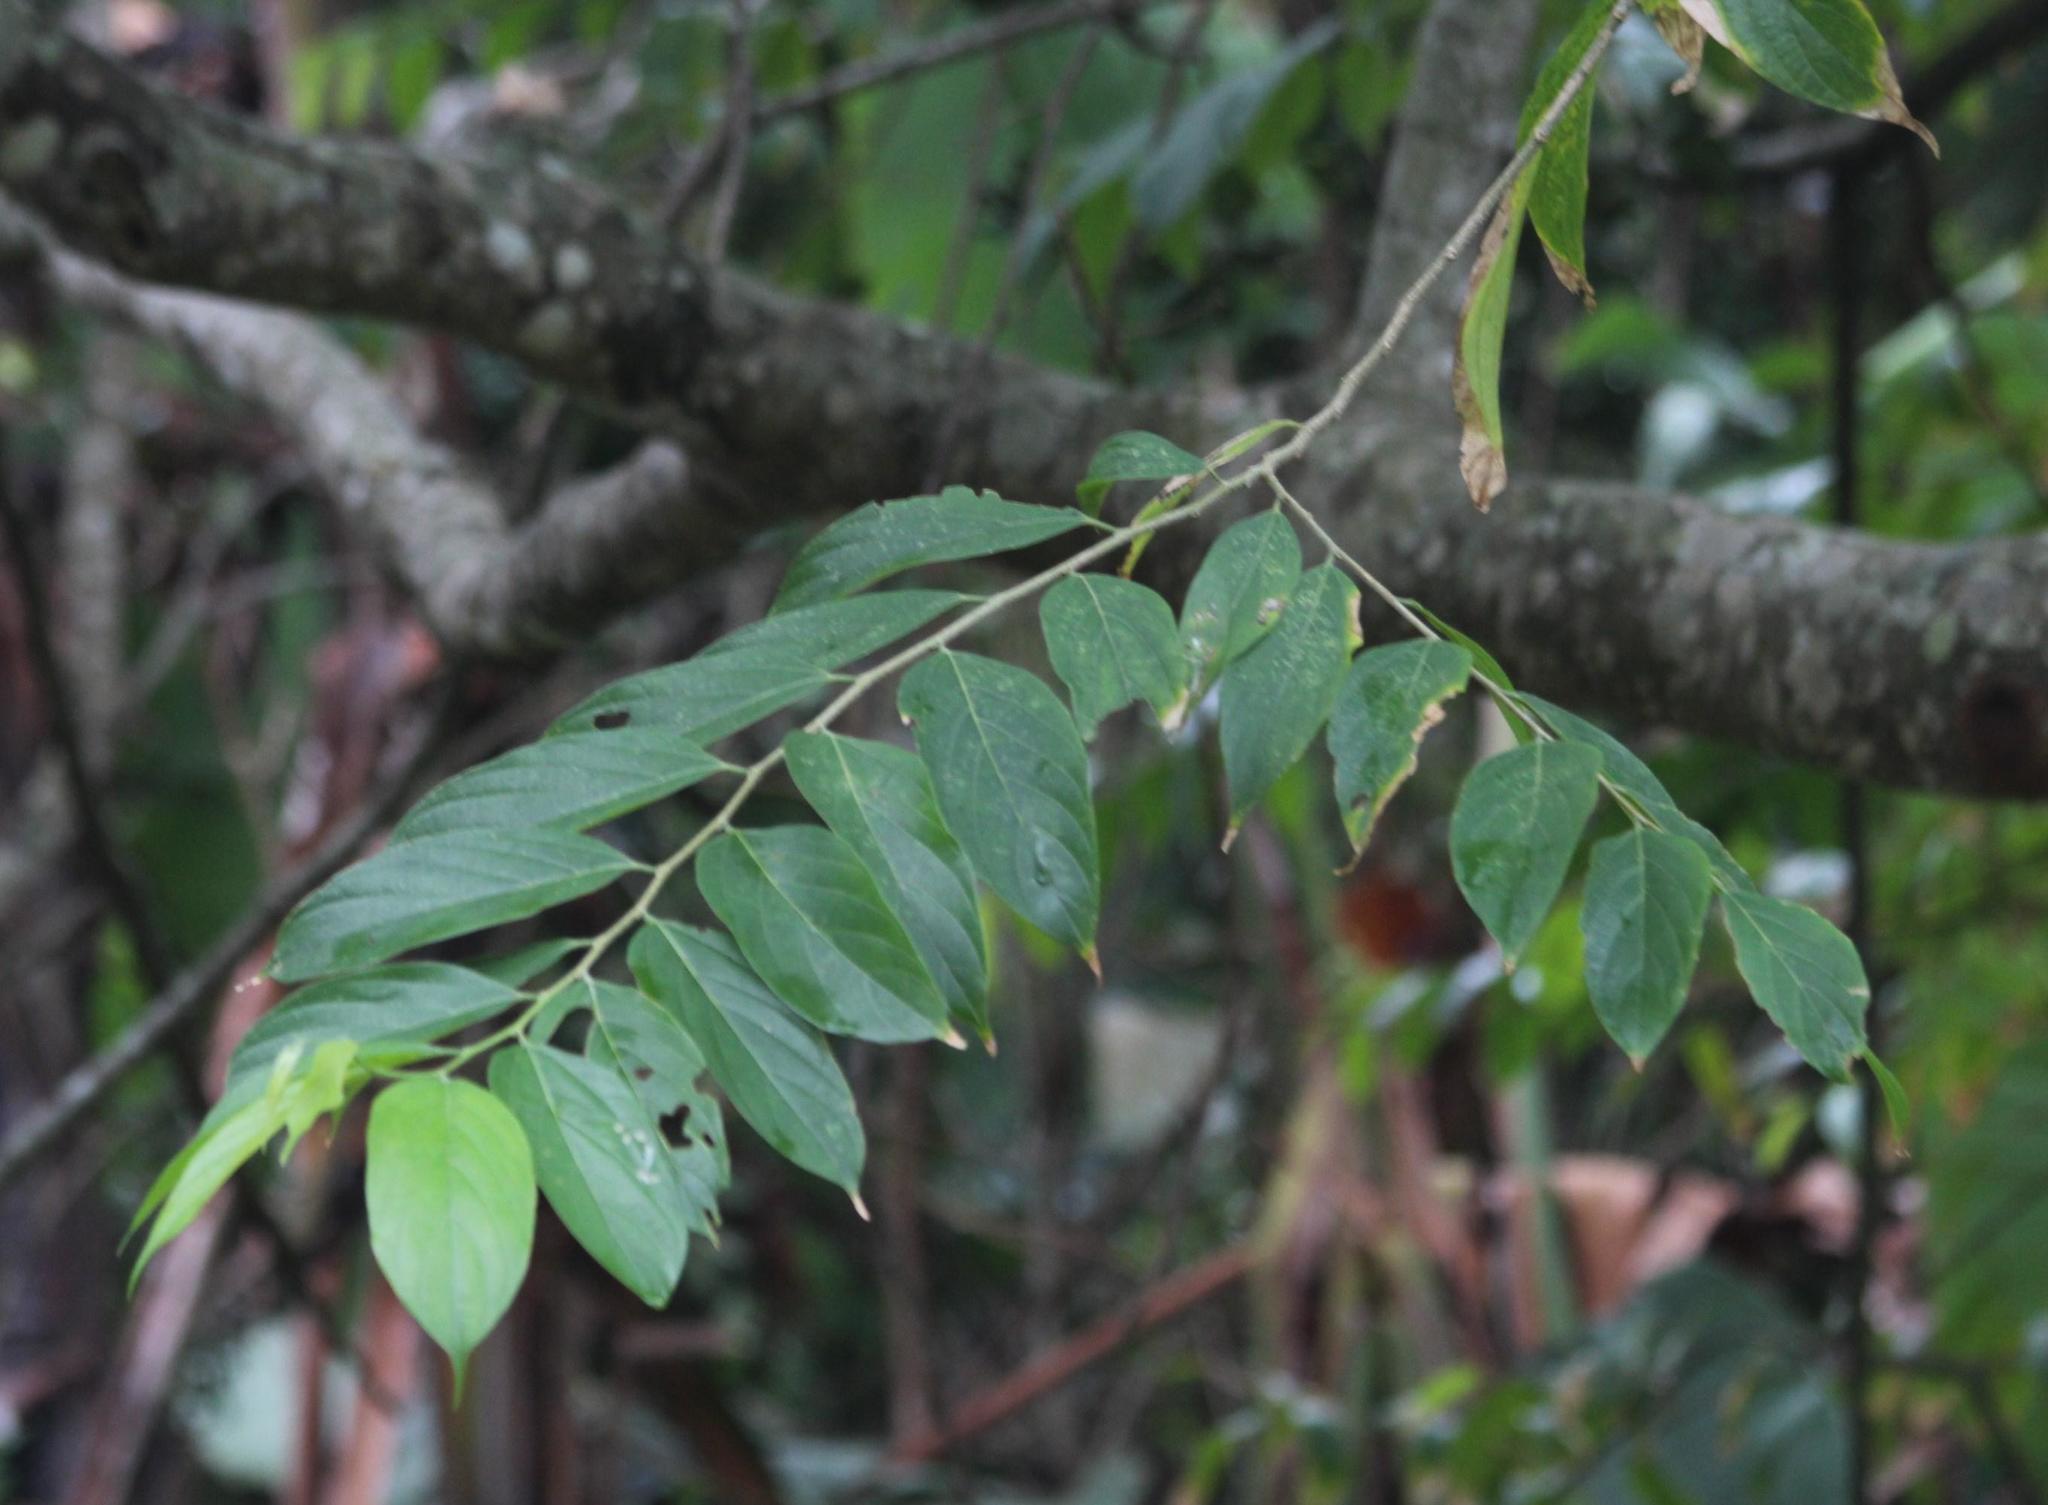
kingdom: Plantae
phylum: Tracheophyta
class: Magnoliopsida
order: Rosales
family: Cannabaceae
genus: Trema
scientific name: Trema orientale
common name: Indian charcoal tree
